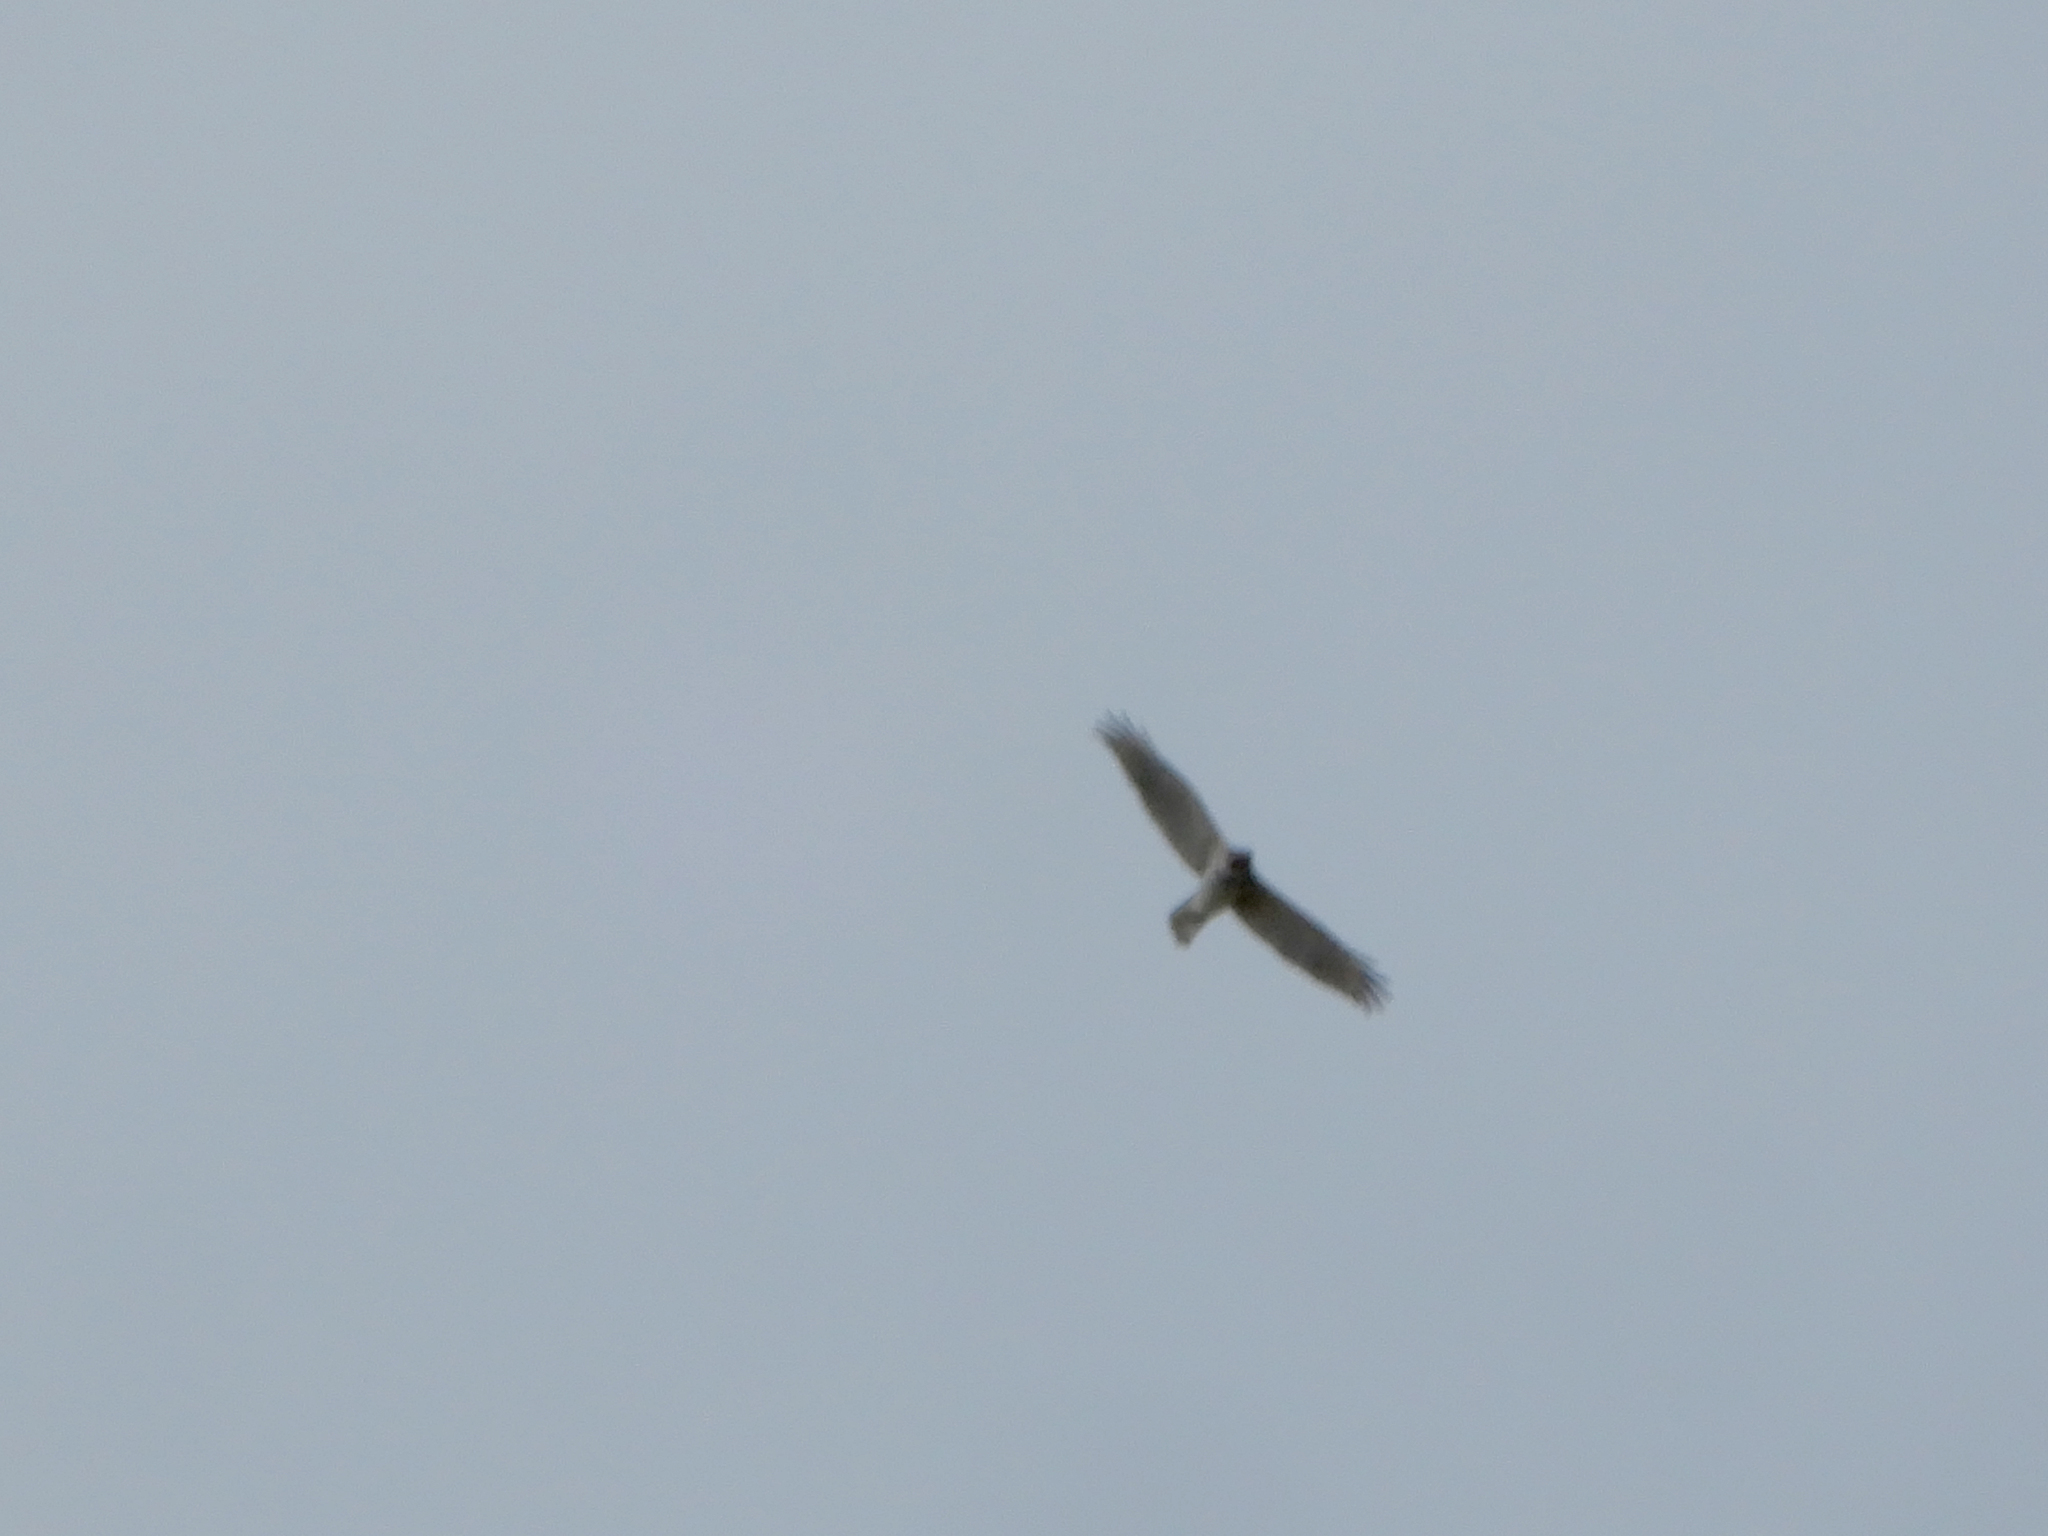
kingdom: Animalia
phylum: Chordata
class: Aves
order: Accipitriformes
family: Accipitridae
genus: Buteo
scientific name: Buteo lineatus
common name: Red-shouldered hawk
